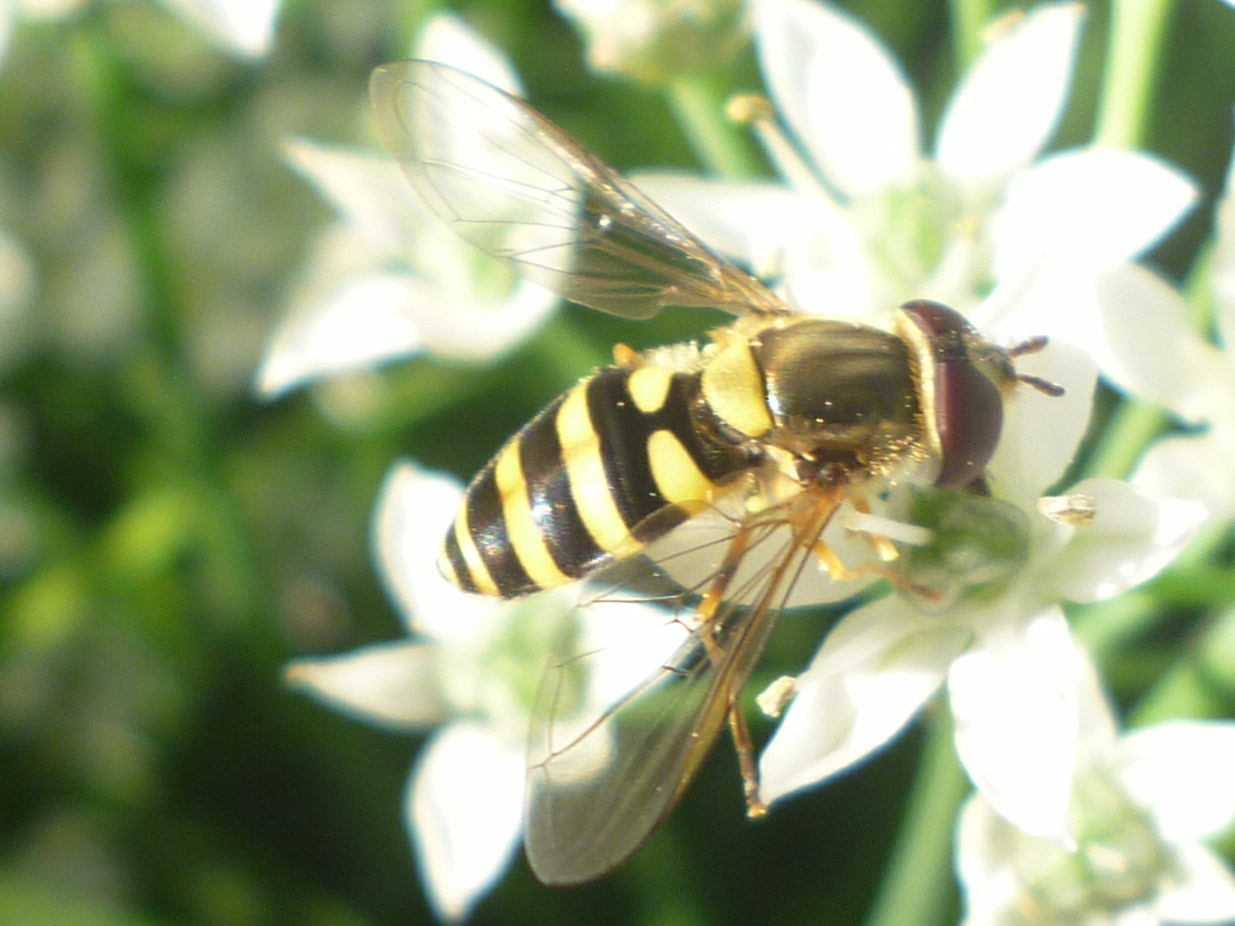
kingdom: Animalia
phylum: Arthropoda
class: Insecta
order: Diptera
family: Syrphidae
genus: Syrphus
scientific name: Syrphus rectus
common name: Yellow-legged flower fly
